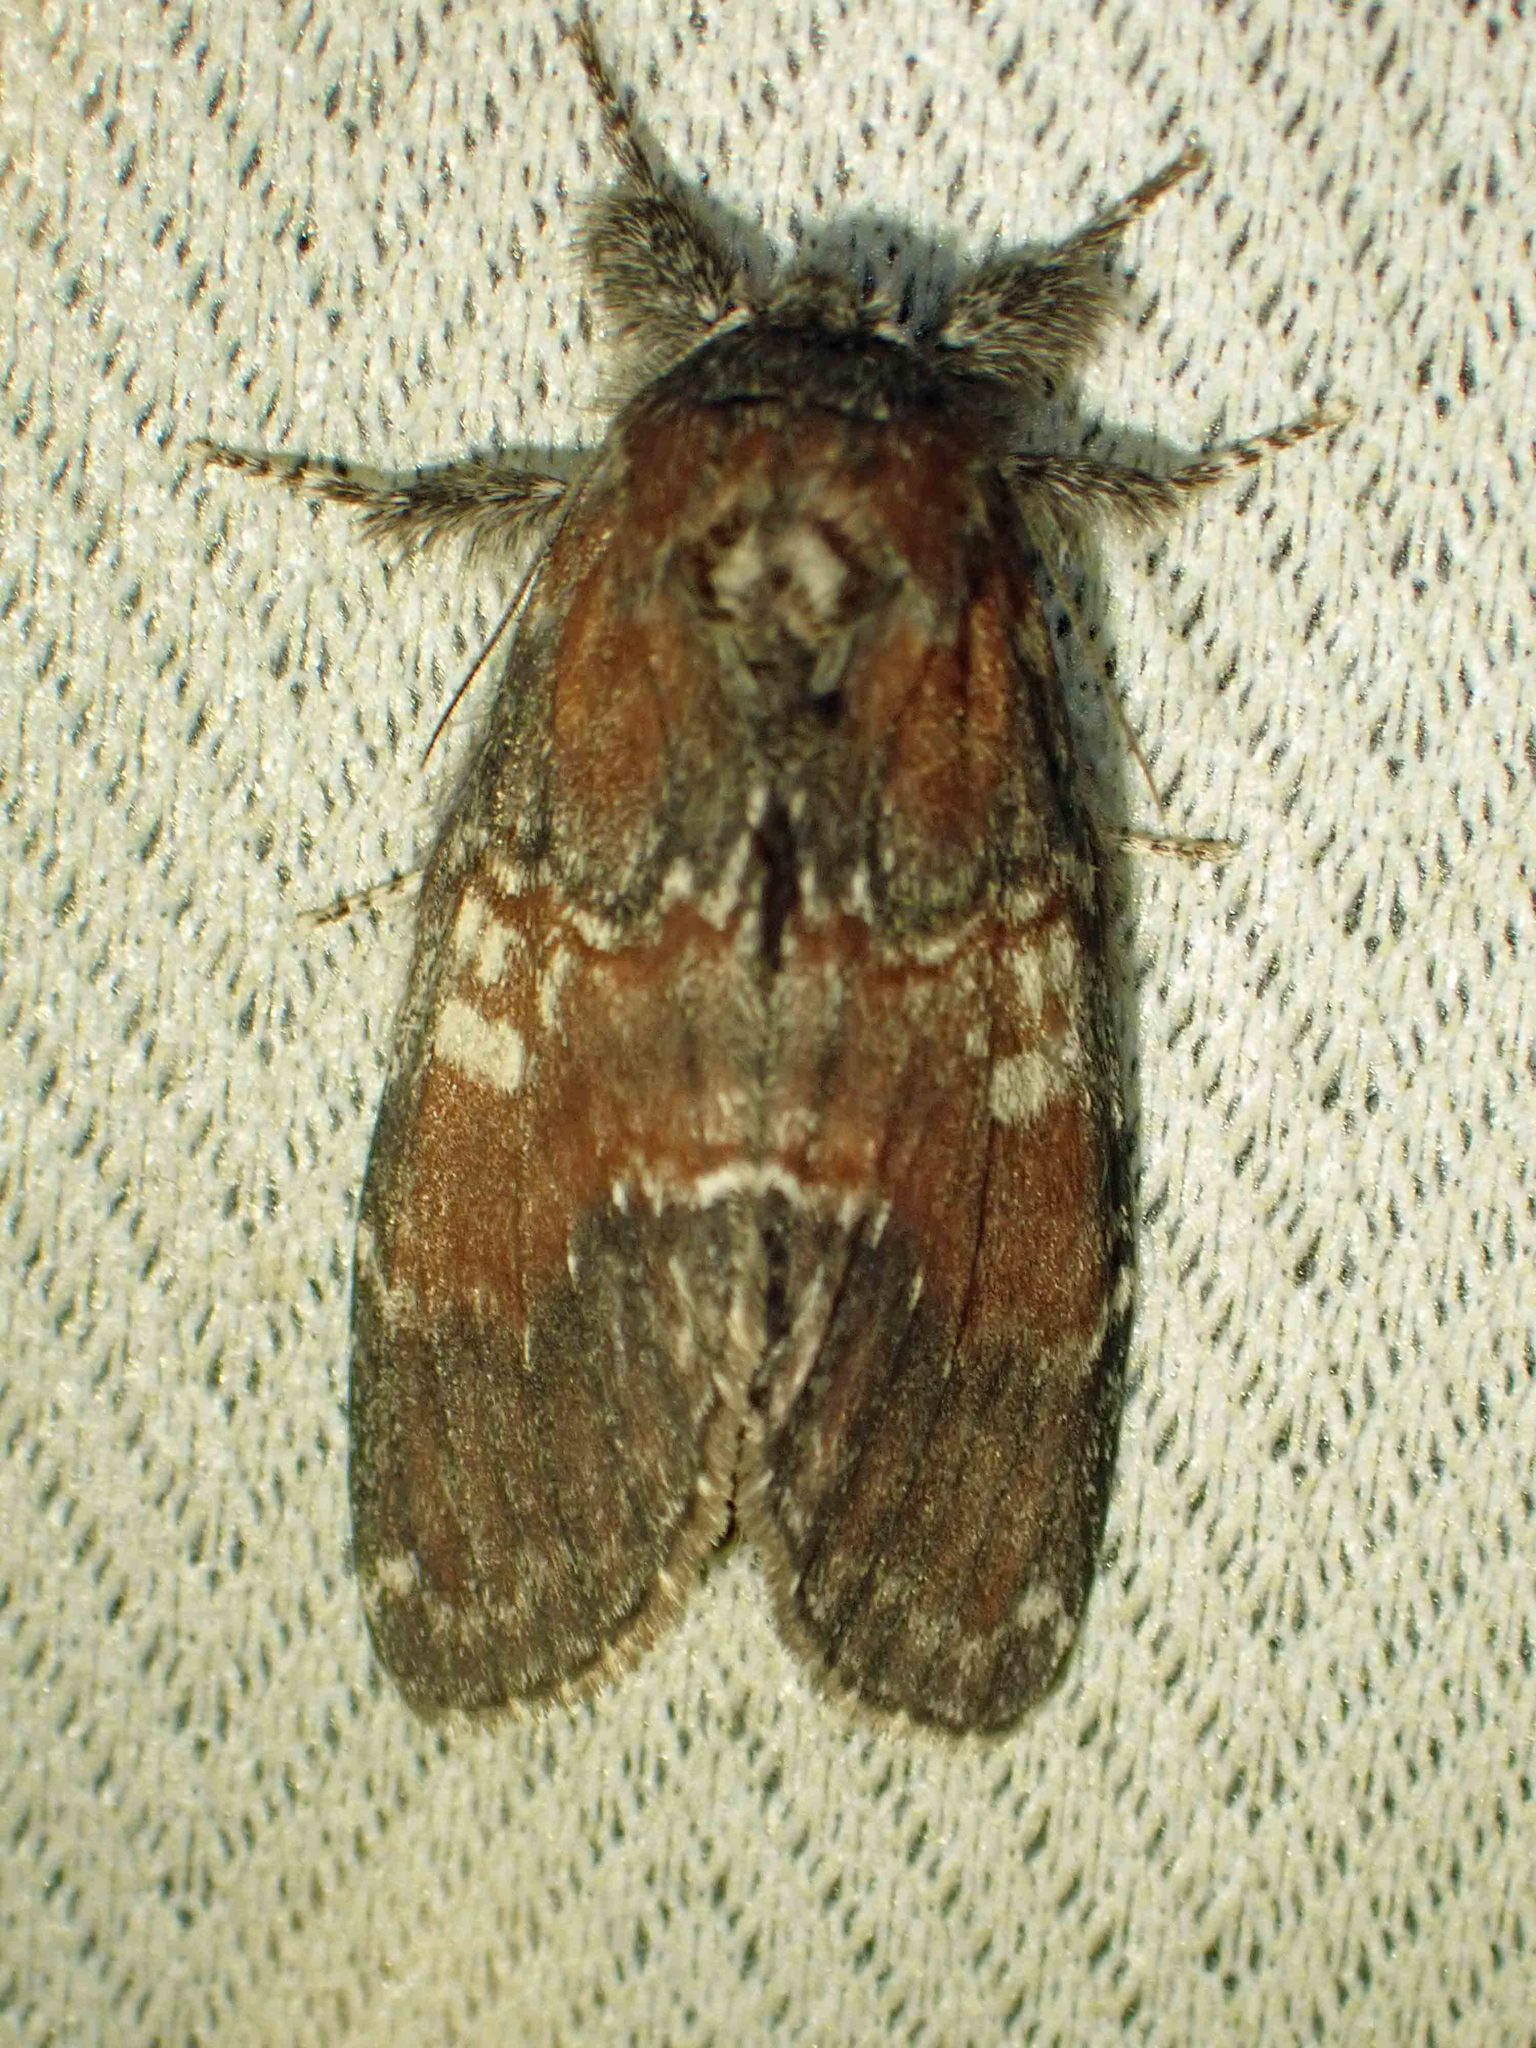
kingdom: Animalia
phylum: Arthropoda
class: Insecta
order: Lepidoptera
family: Notodontidae
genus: Peridea
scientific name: Peridea ferruginea
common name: Chocolate prominent
